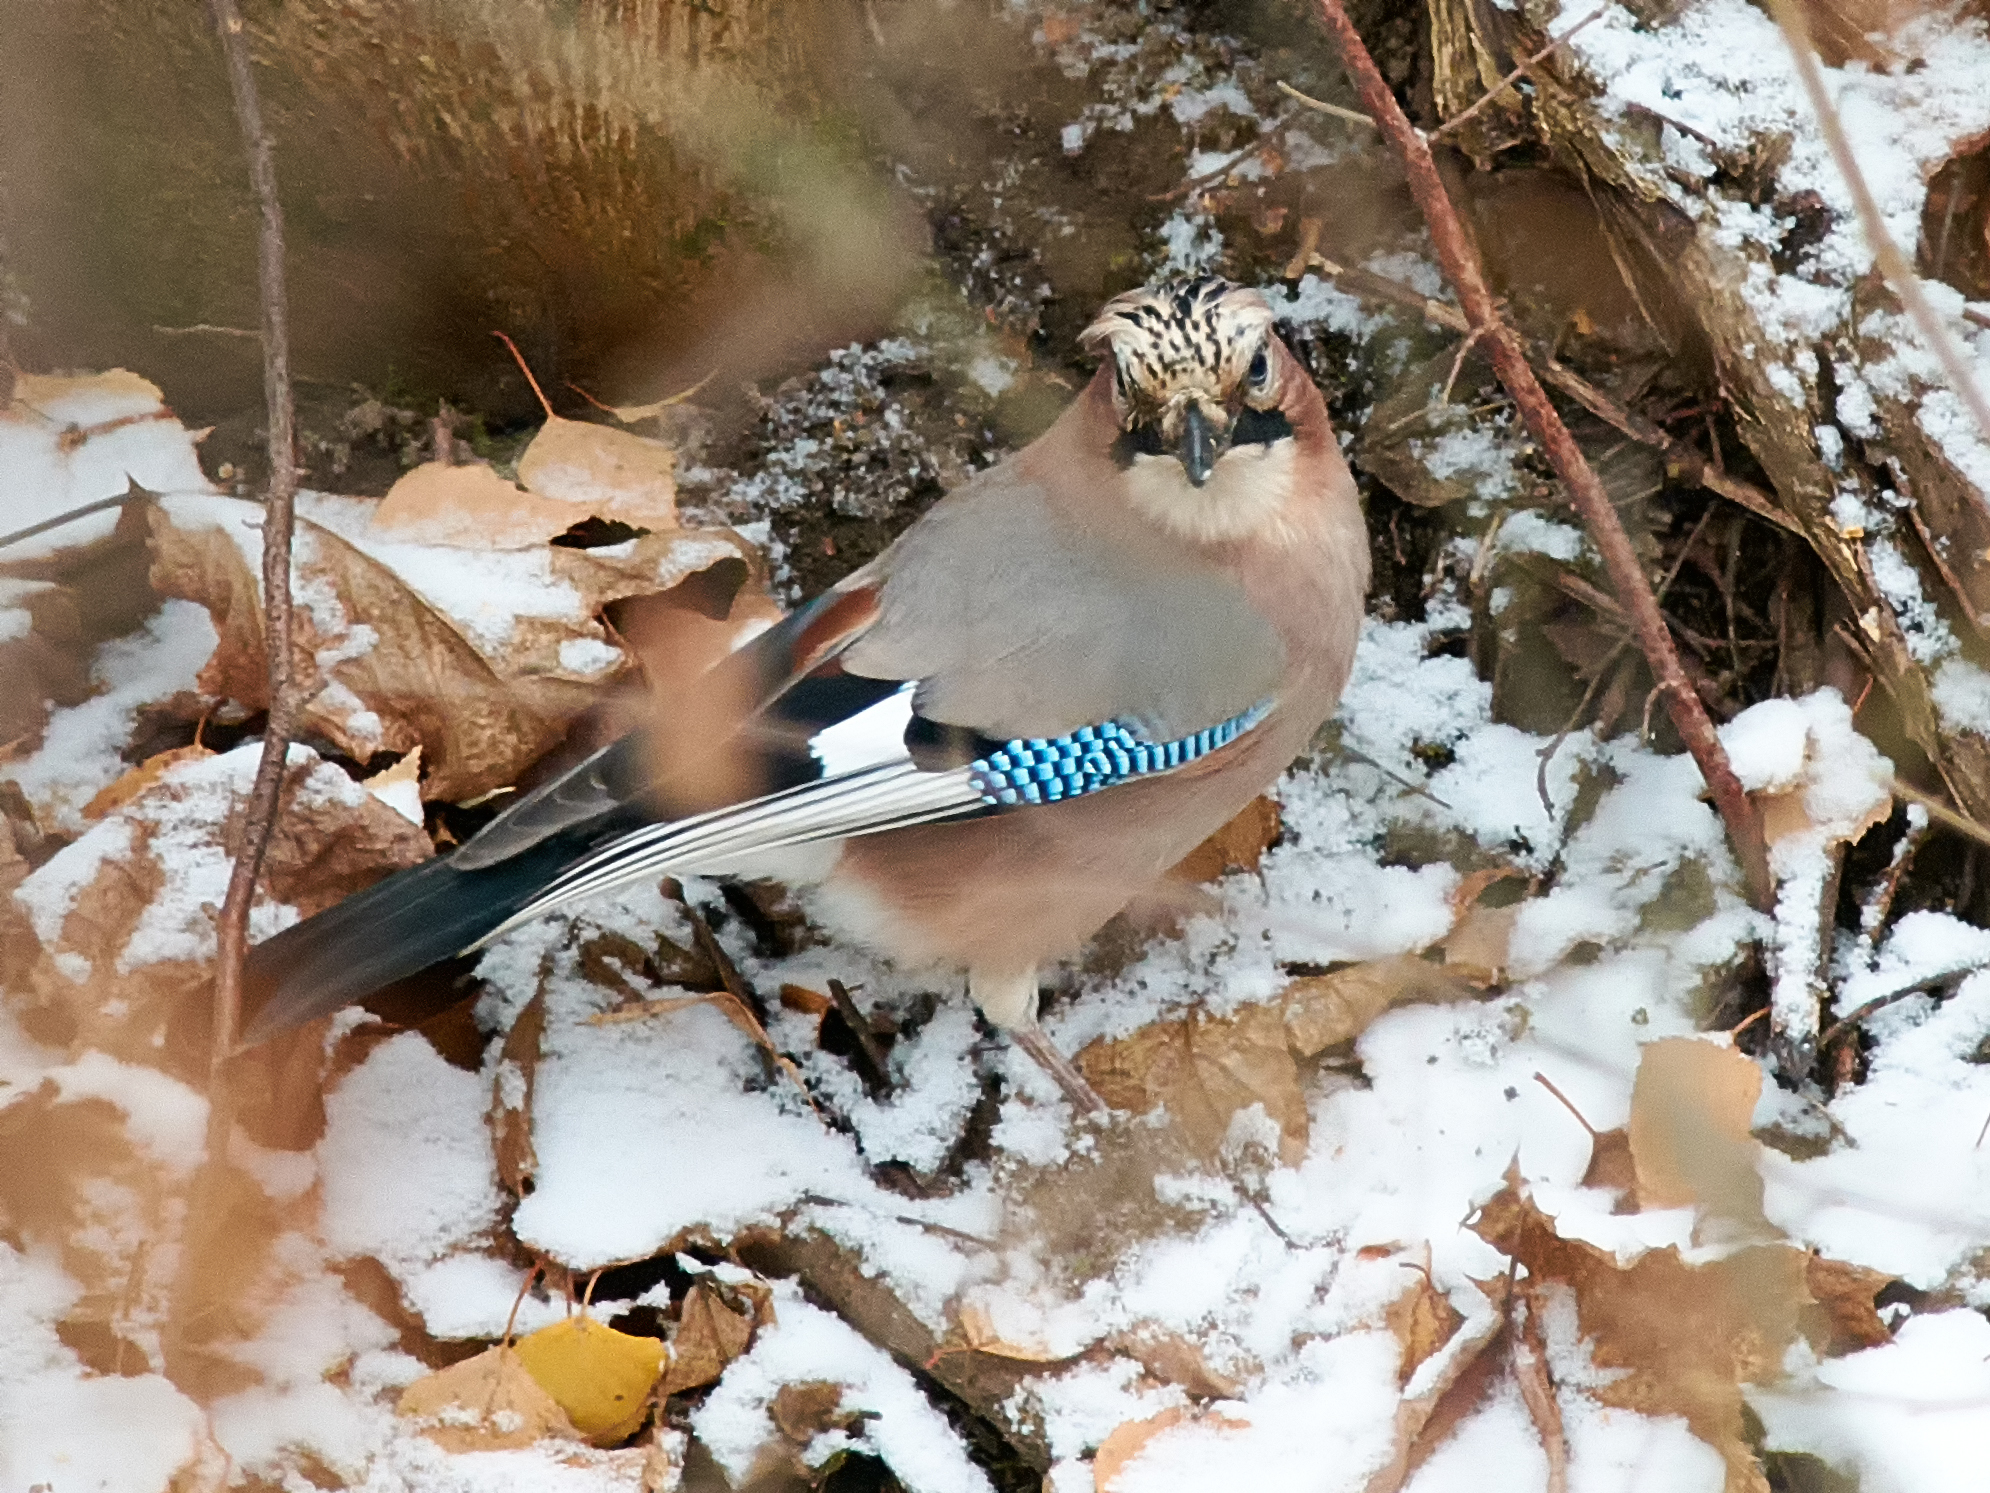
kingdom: Animalia
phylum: Chordata
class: Aves
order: Passeriformes
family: Corvidae
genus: Garrulus
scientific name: Garrulus glandarius
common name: Eurasian jay
